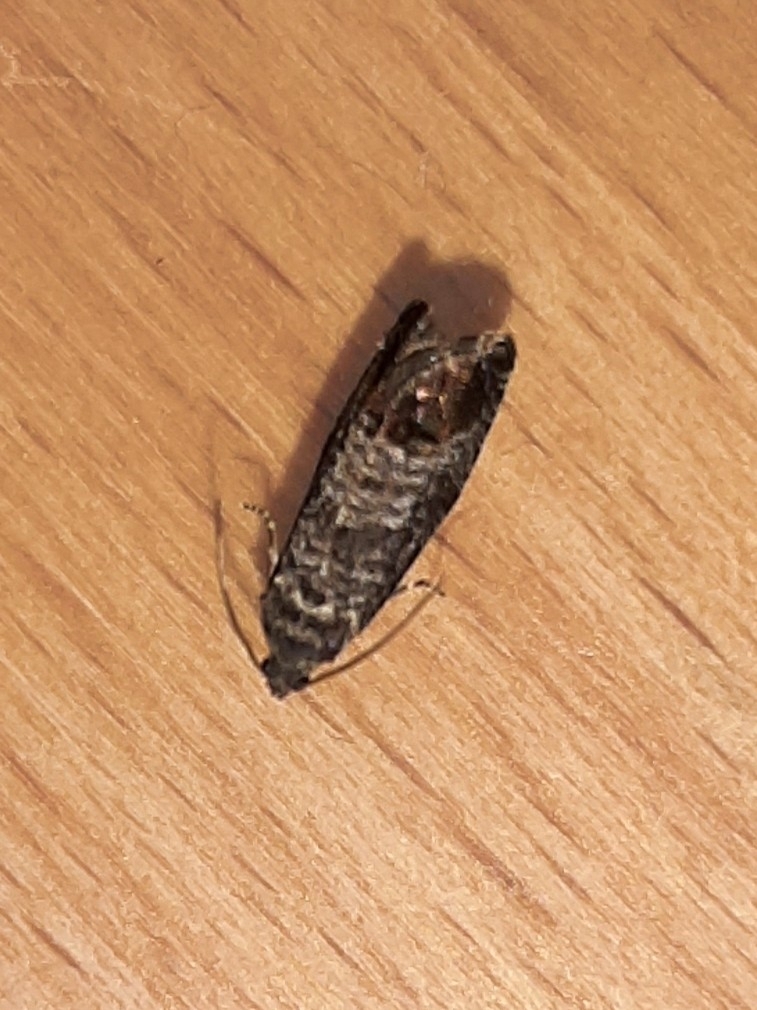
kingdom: Animalia
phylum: Arthropoda
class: Insecta
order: Lepidoptera
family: Tortricidae
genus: Cydia
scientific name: Cydia pomonella
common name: Codling moth
